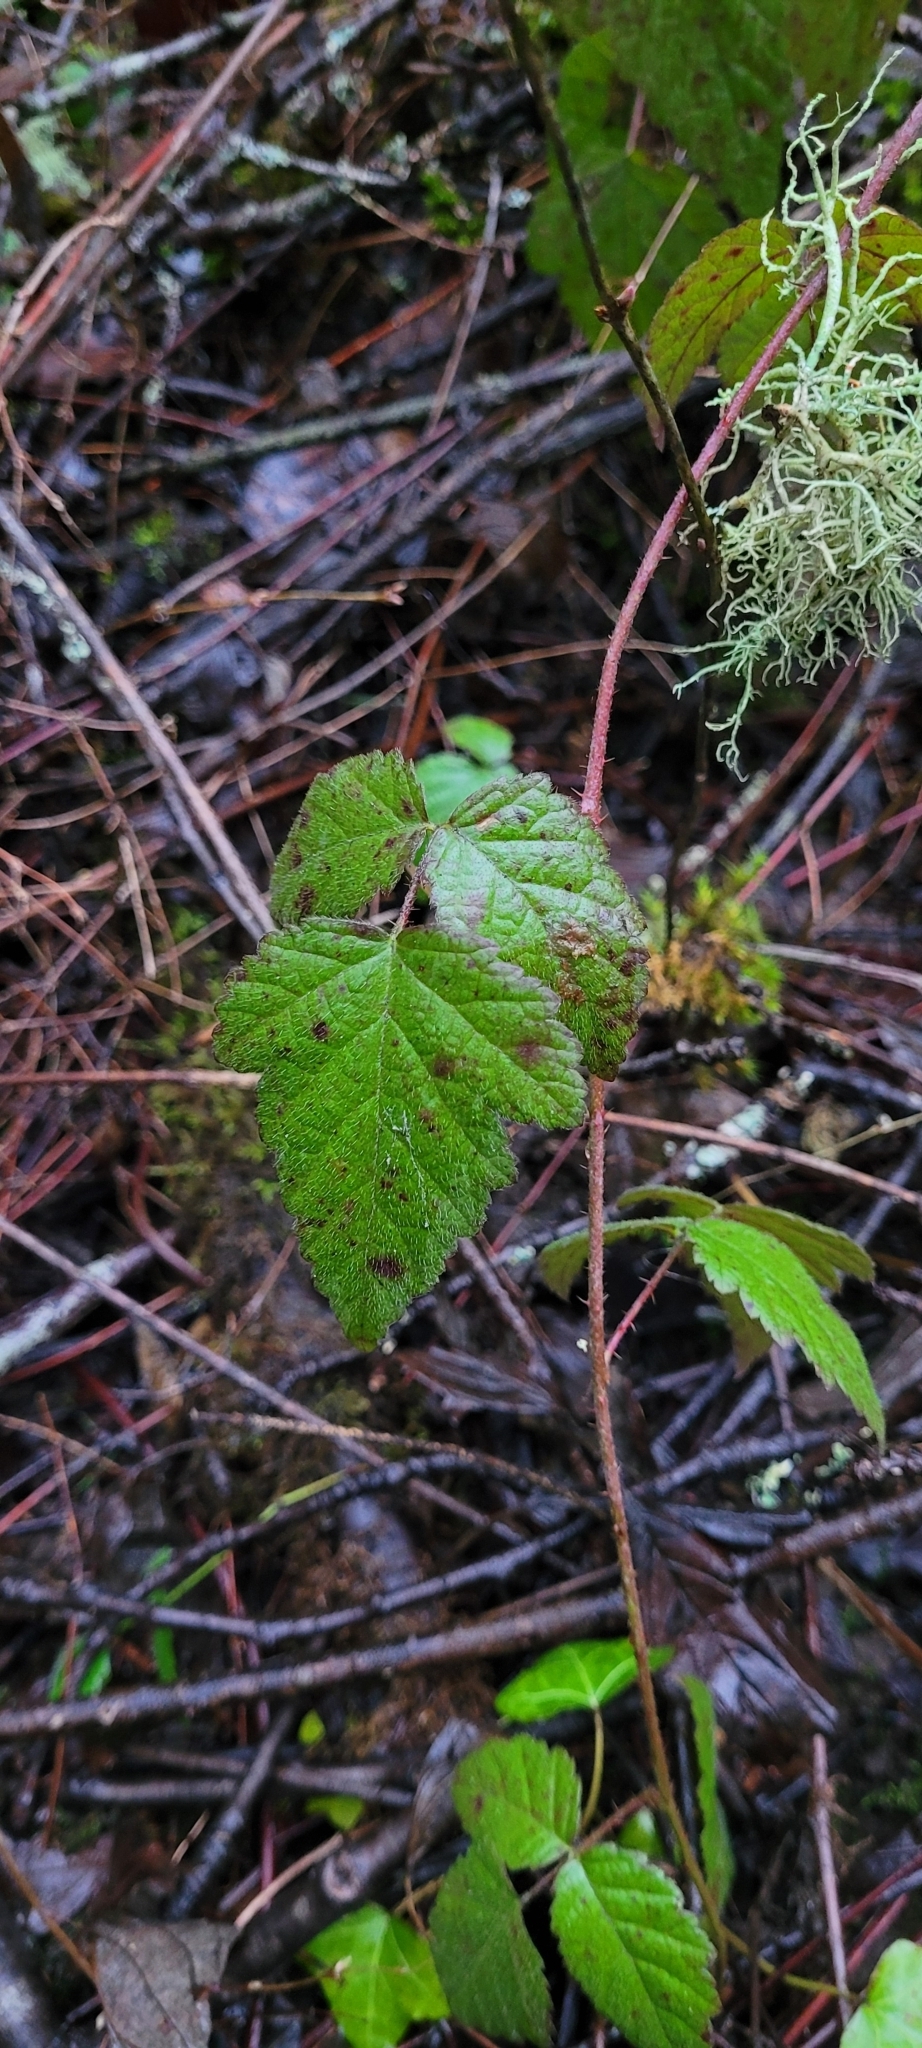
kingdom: Plantae
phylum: Tracheophyta
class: Magnoliopsida
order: Rosales
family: Rosaceae
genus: Rubus
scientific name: Rubus ursinus
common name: Pacific blackberry
